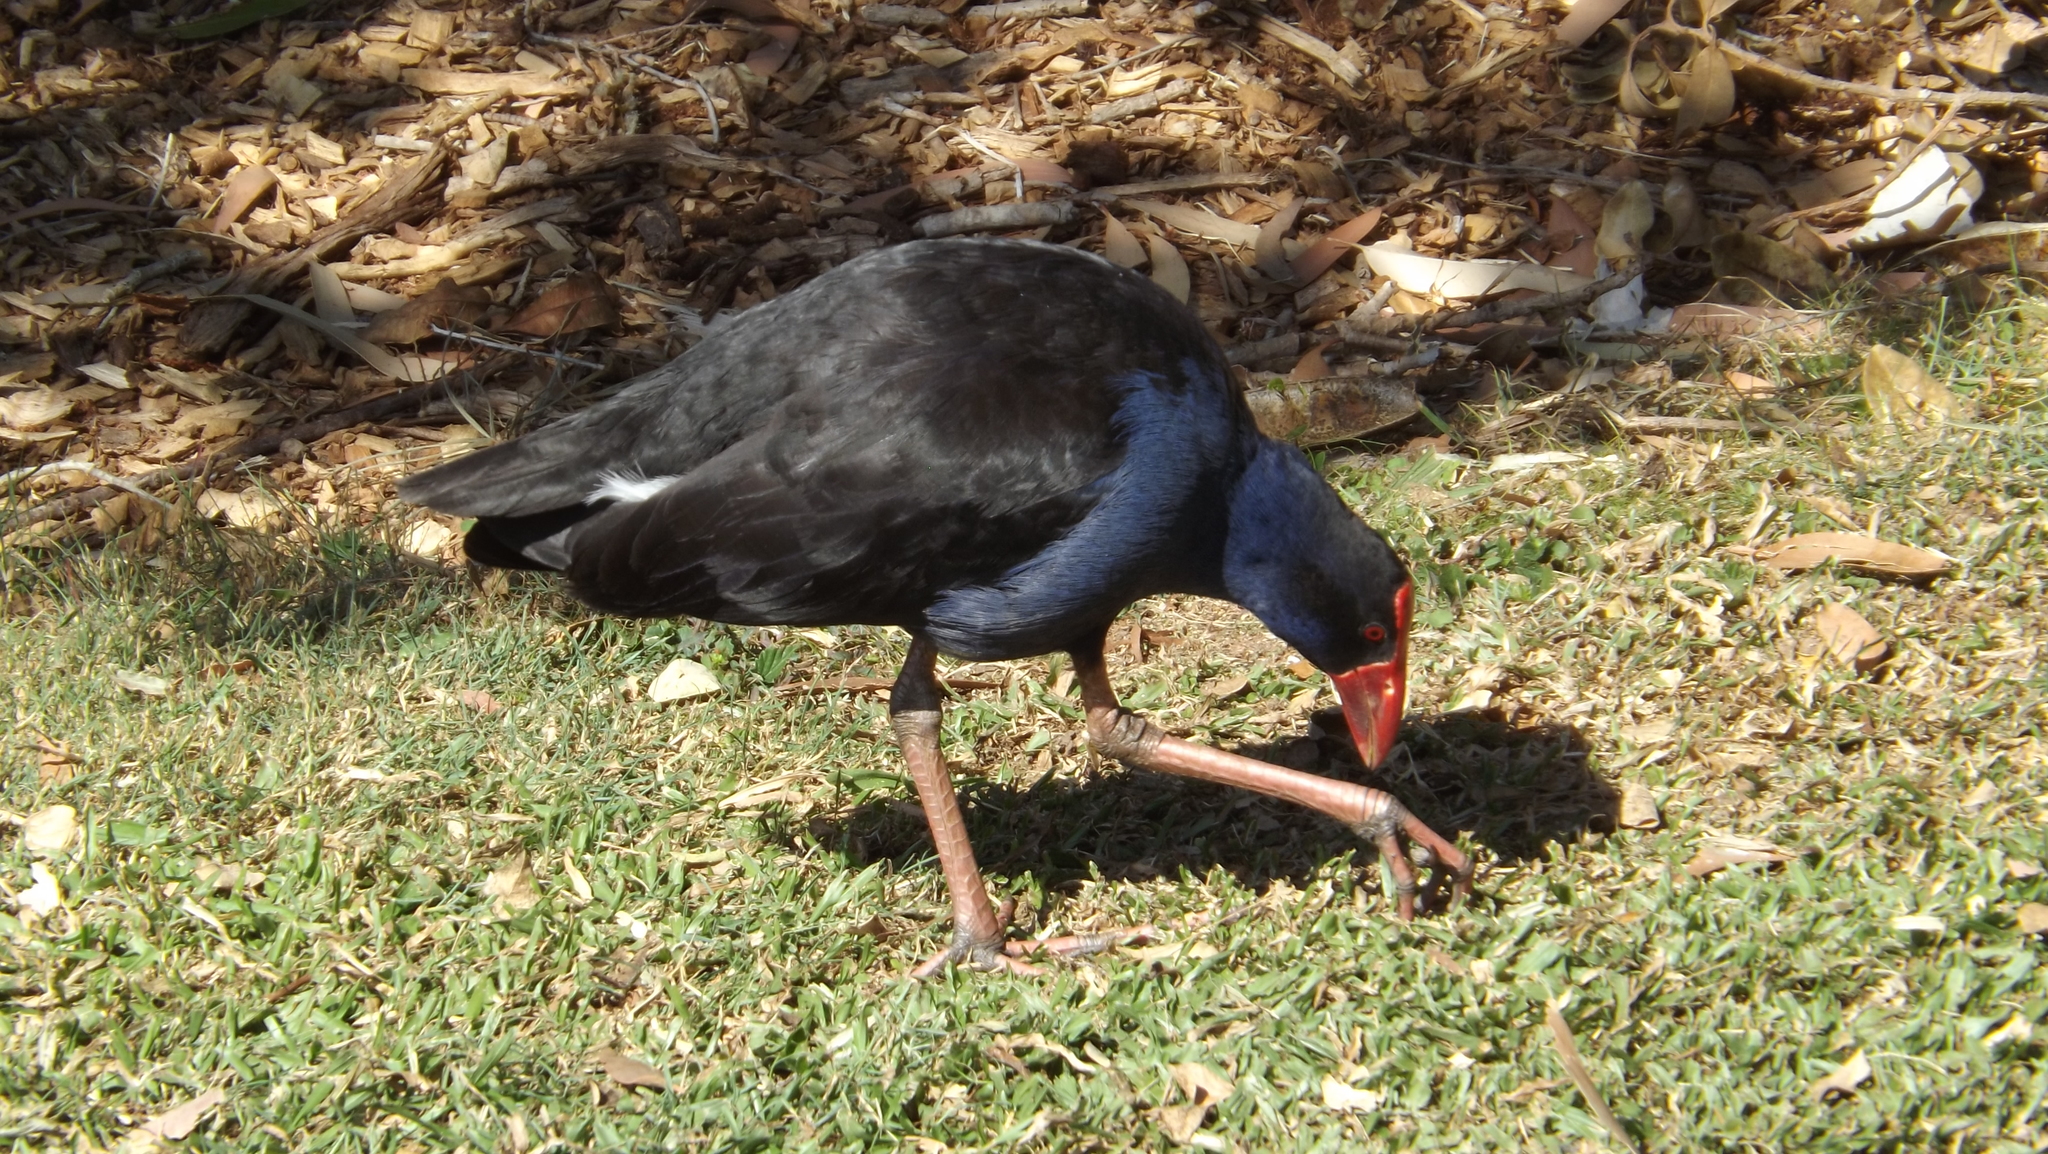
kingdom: Animalia
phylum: Chordata
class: Aves
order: Gruiformes
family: Rallidae
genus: Porphyrio
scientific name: Porphyrio melanotus
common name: Australasian swamphen
